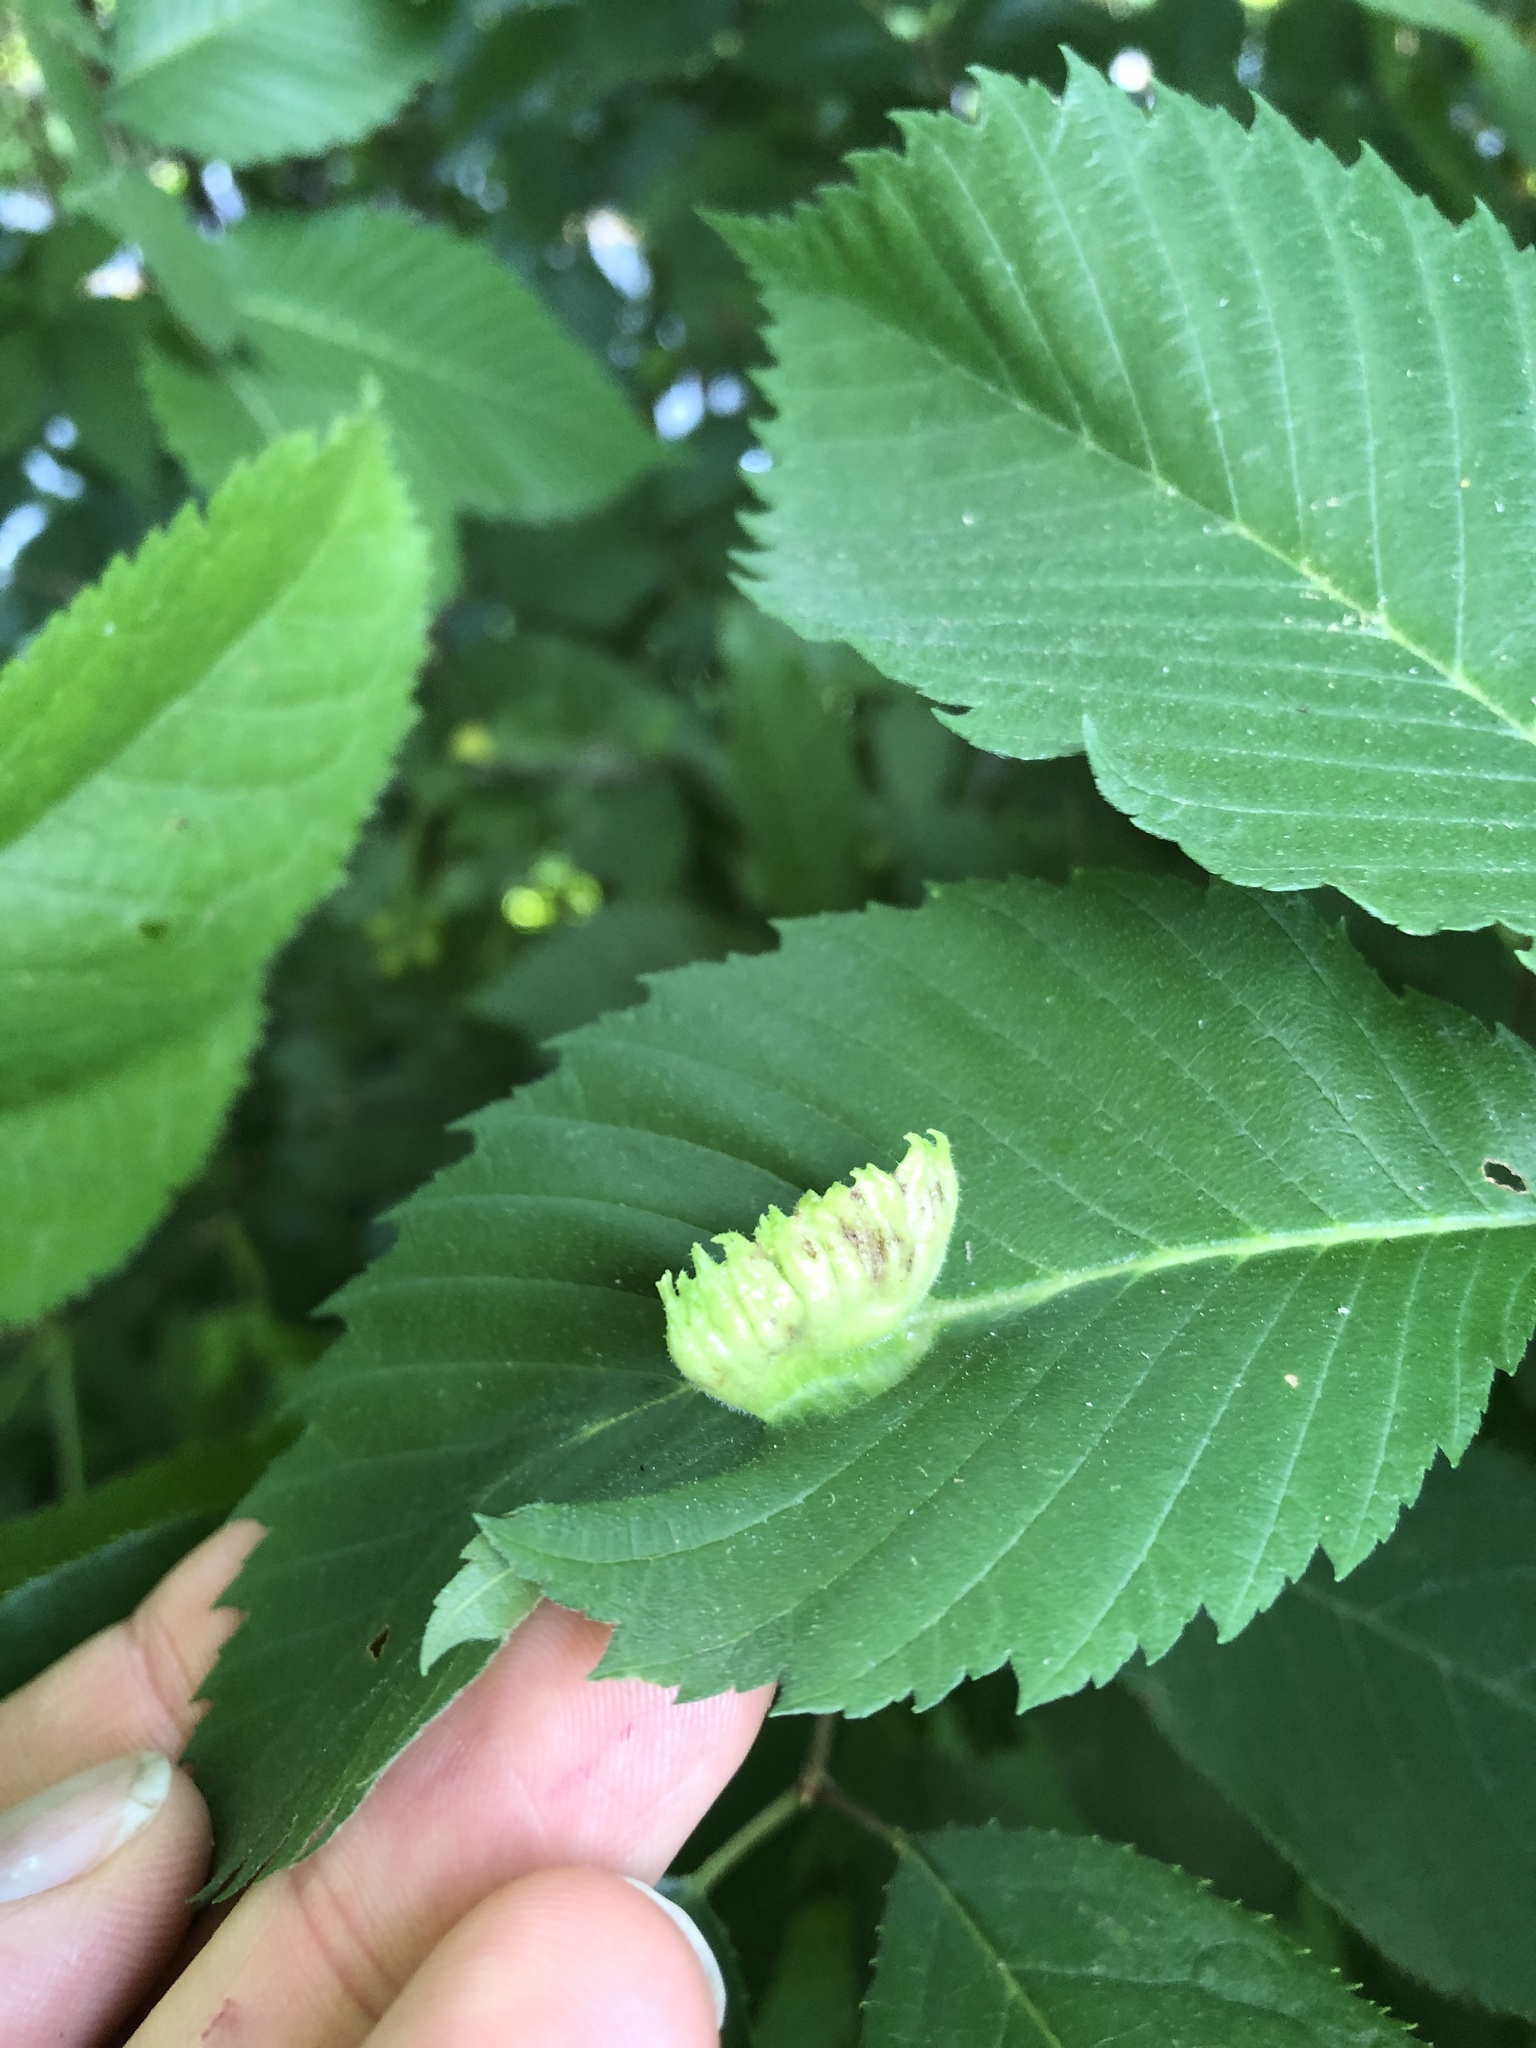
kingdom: Animalia
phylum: Arthropoda
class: Insecta
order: Hemiptera
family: Aphididae
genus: Colopha
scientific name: Colopha ulmicola
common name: Elm cockscombgall aphid
